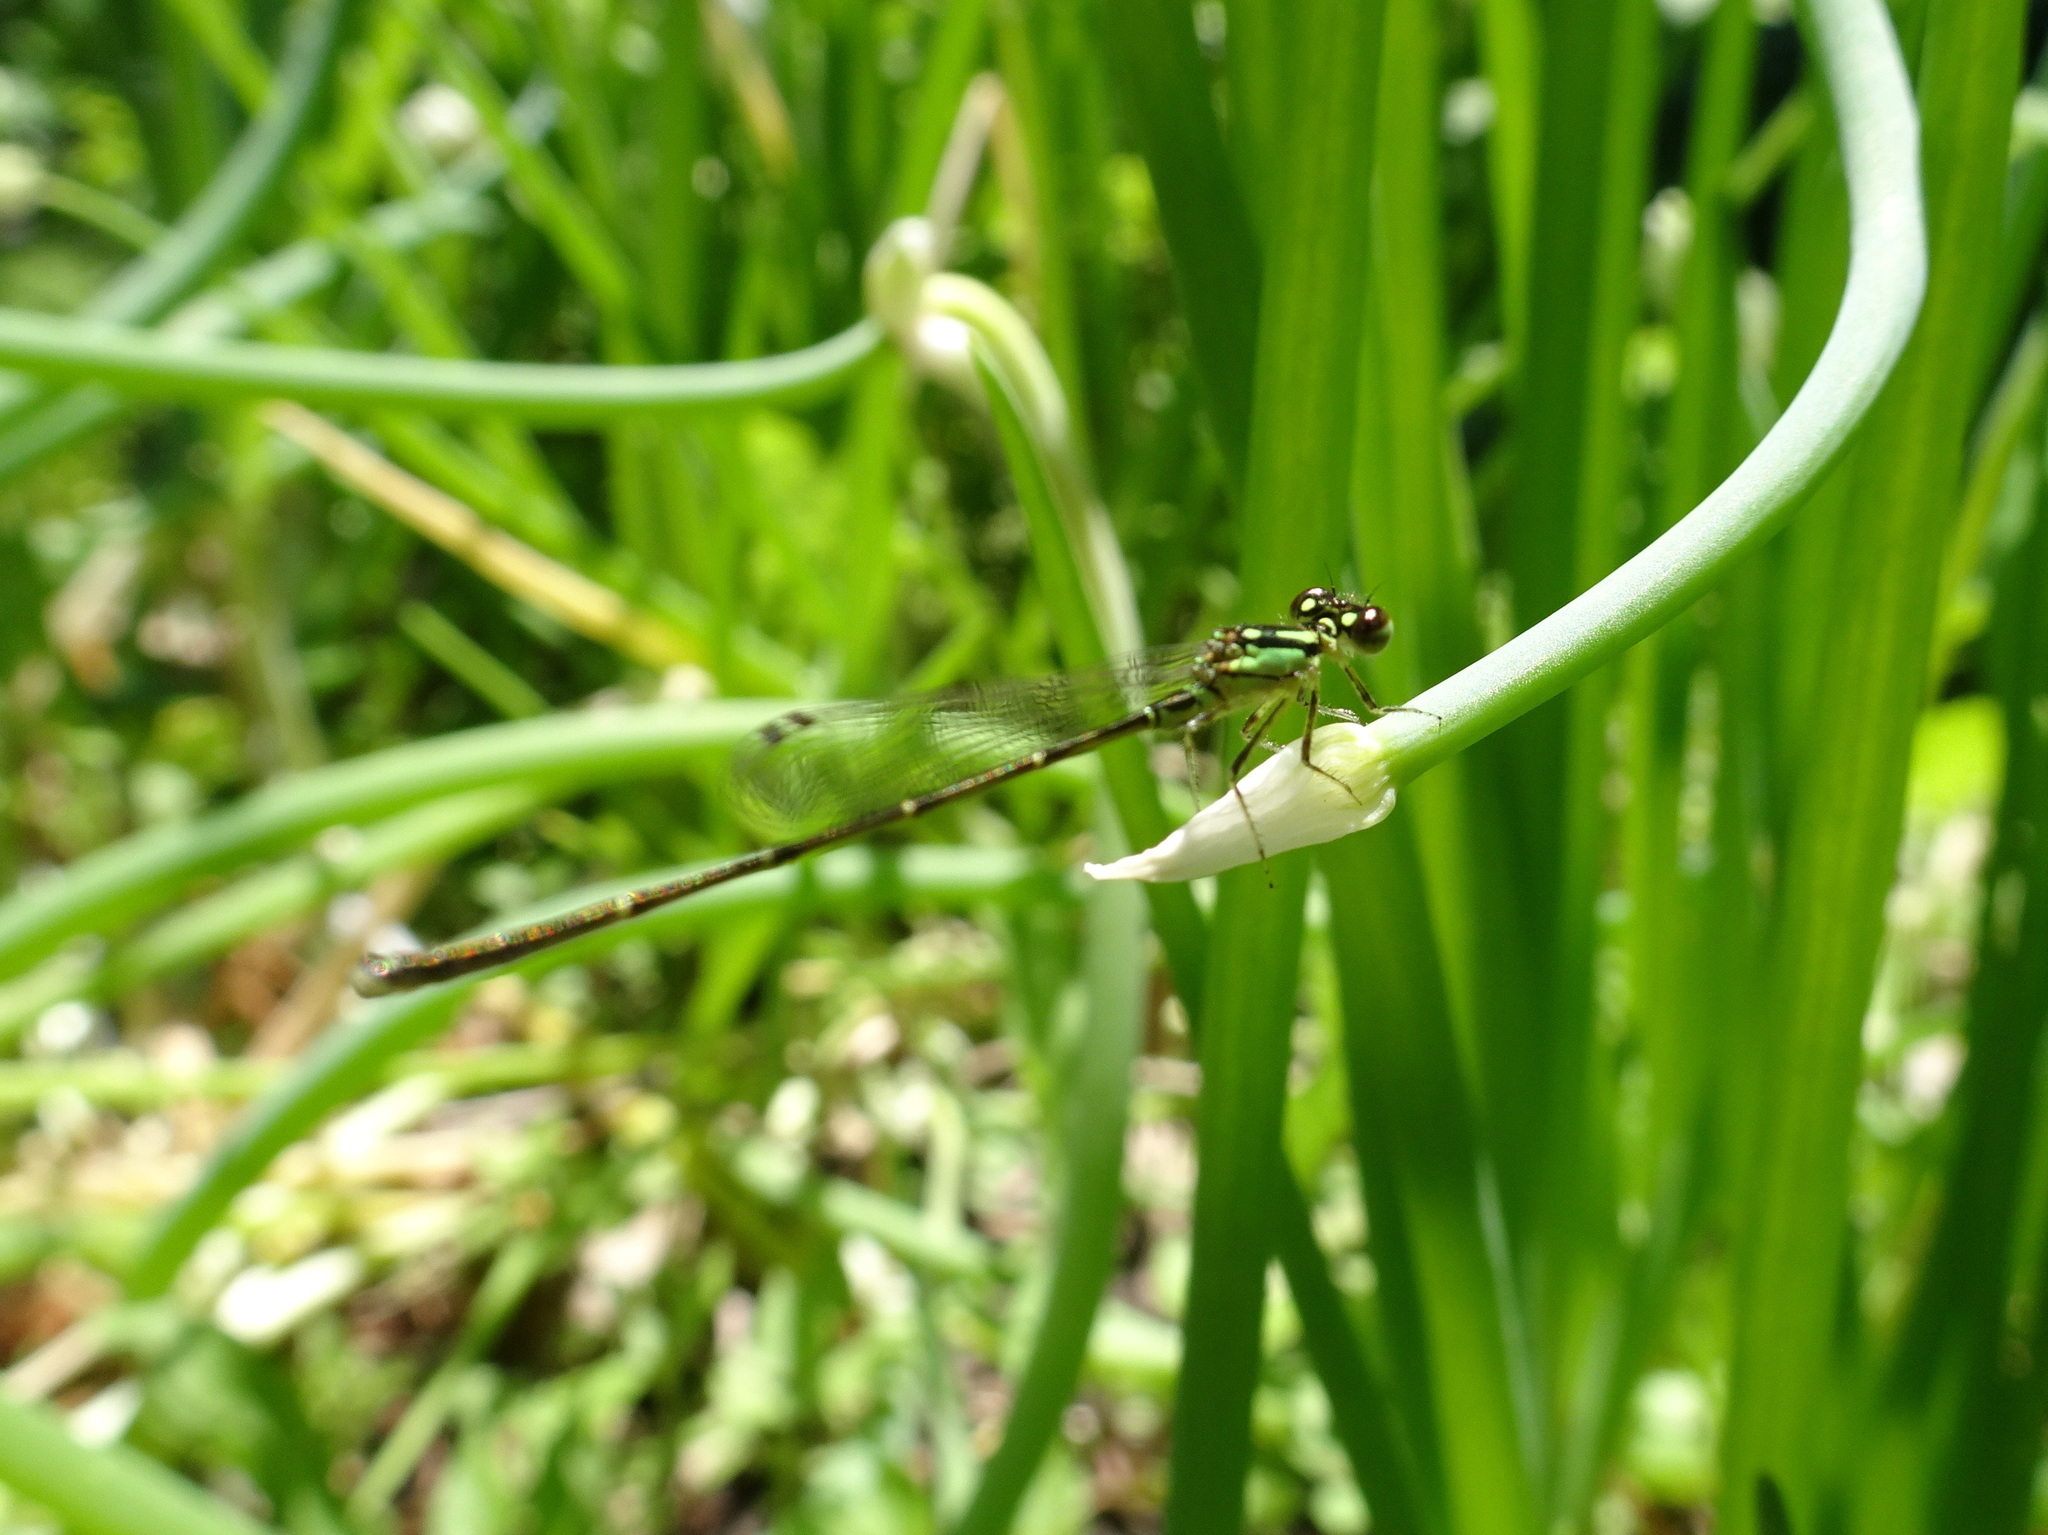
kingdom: Animalia
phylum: Arthropoda
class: Insecta
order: Odonata
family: Coenagrionidae
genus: Ischnura
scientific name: Ischnura posita
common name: Fragile forktail
